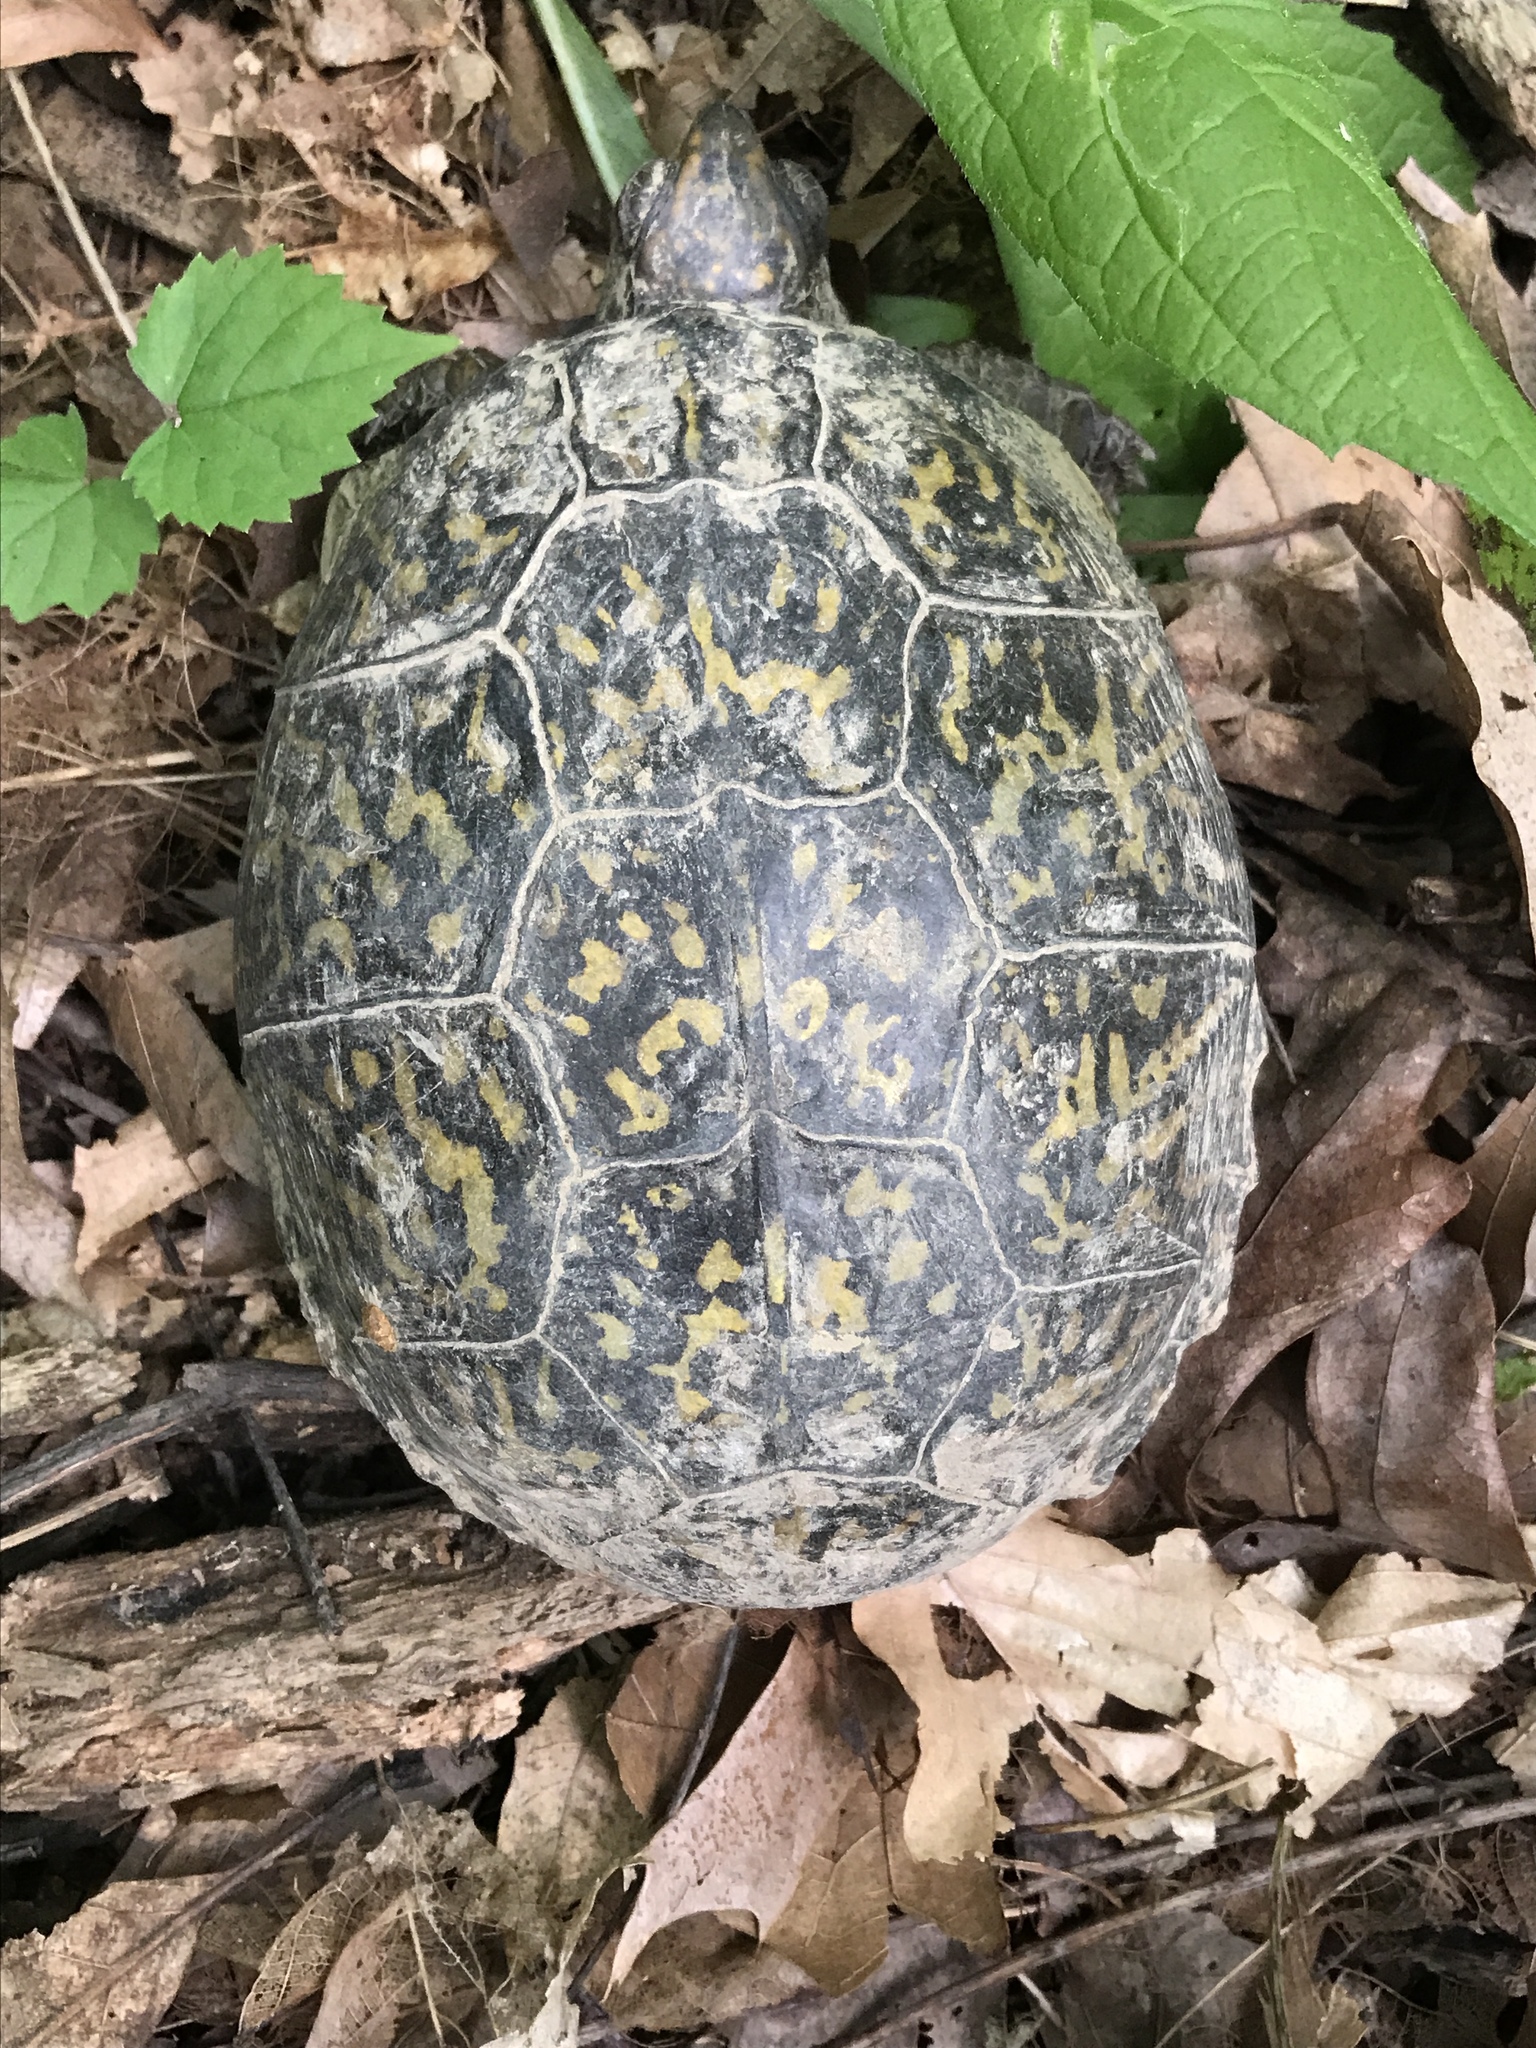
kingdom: Animalia
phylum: Chordata
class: Testudines
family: Emydidae
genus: Terrapene
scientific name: Terrapene carolina
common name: Common box turtle
